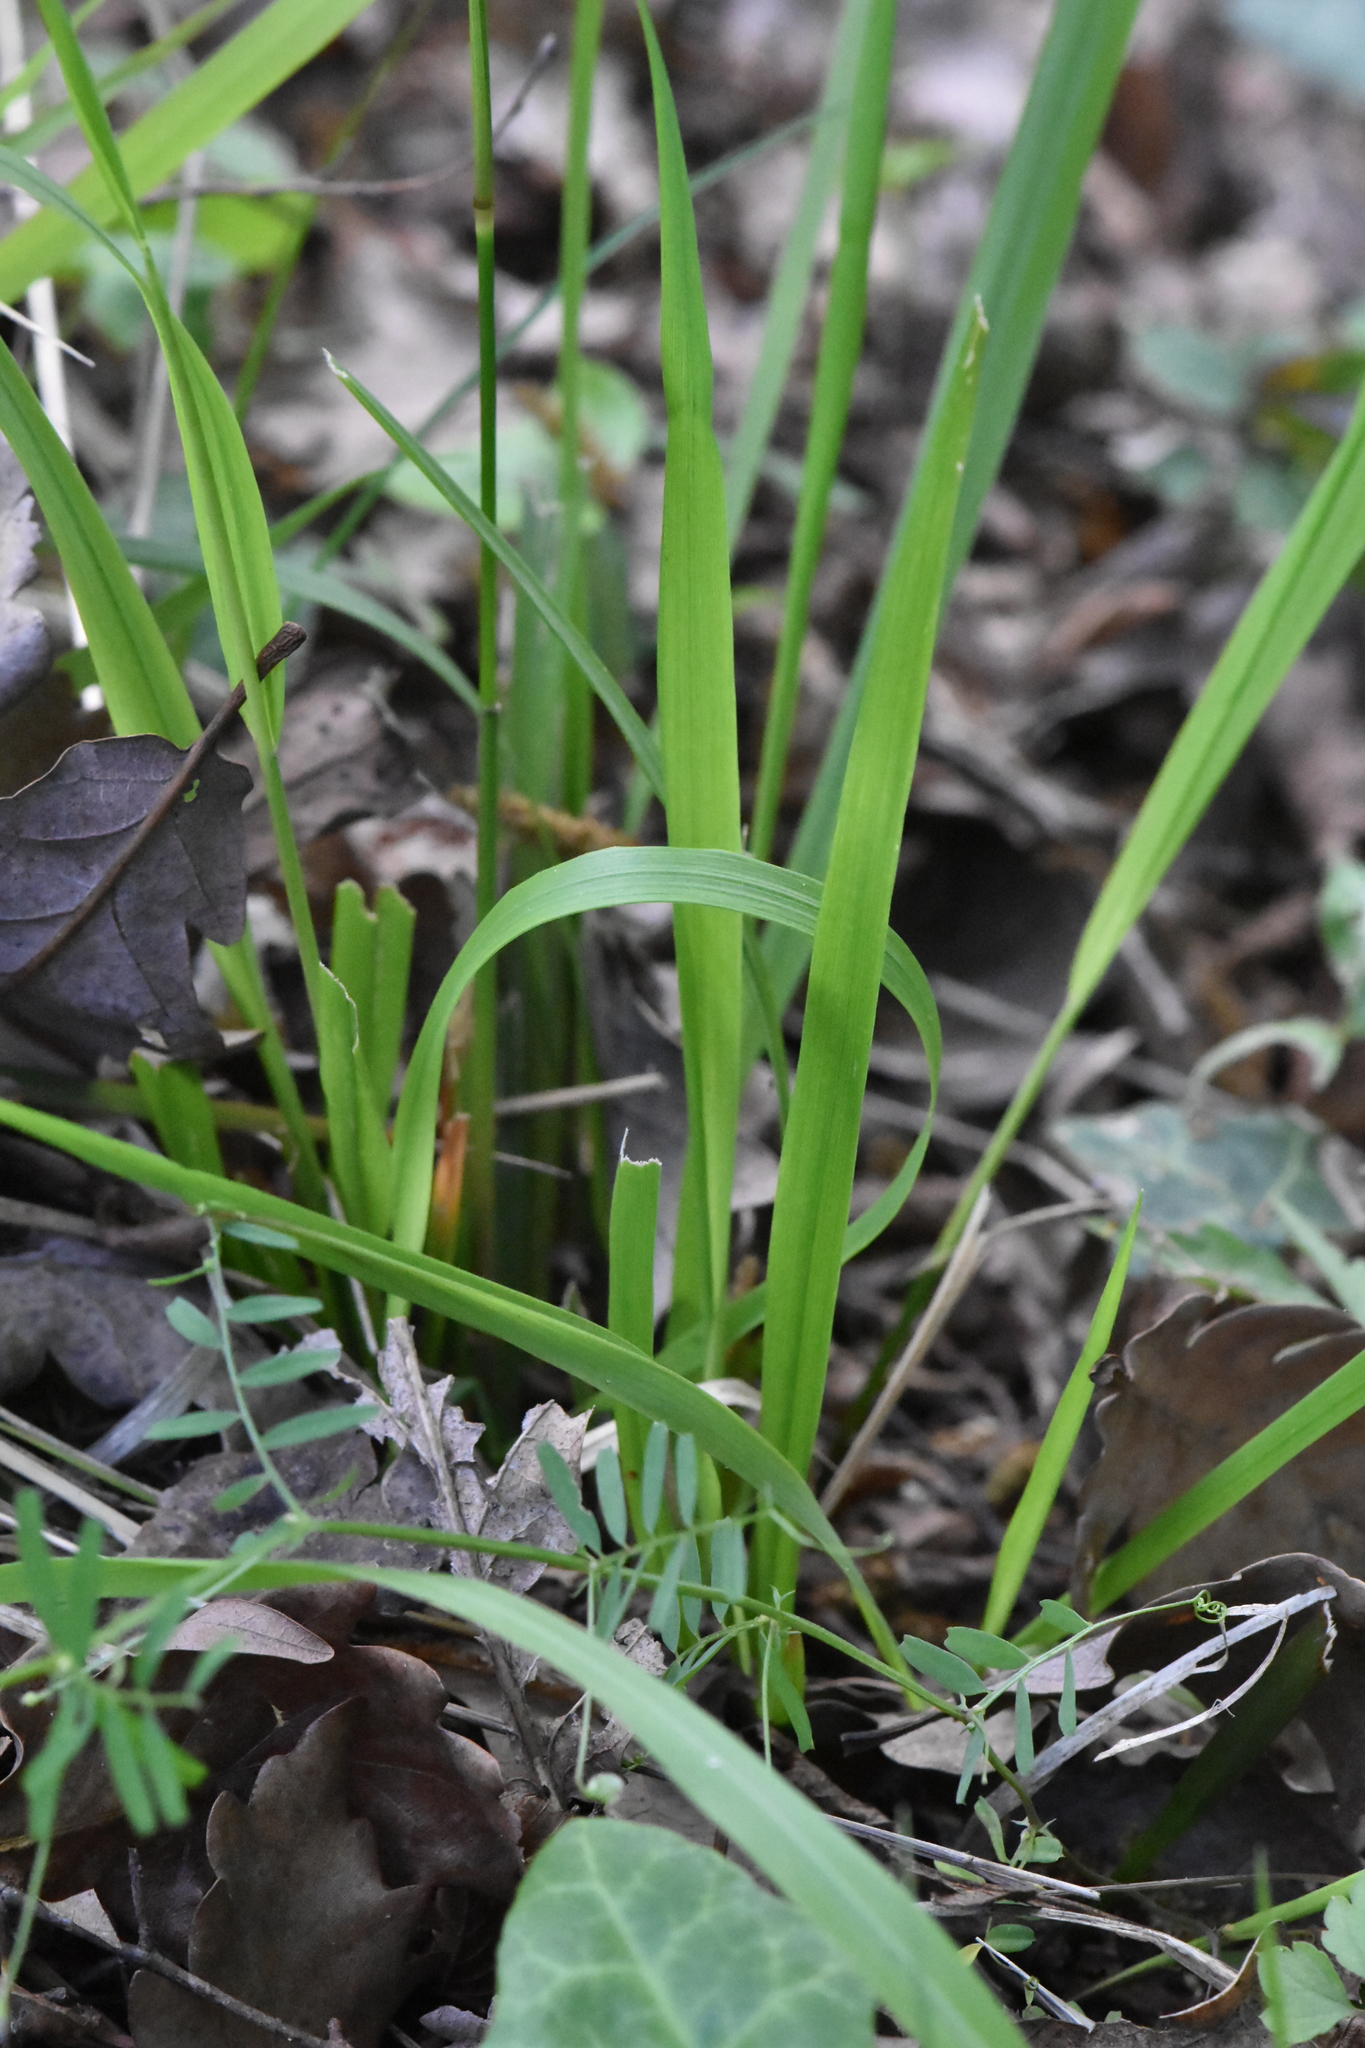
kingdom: Plantae
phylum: Tracheophyta
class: Liliopsida
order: Poales
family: Poaceae
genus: Achnatherum
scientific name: Achnatherum virescens
